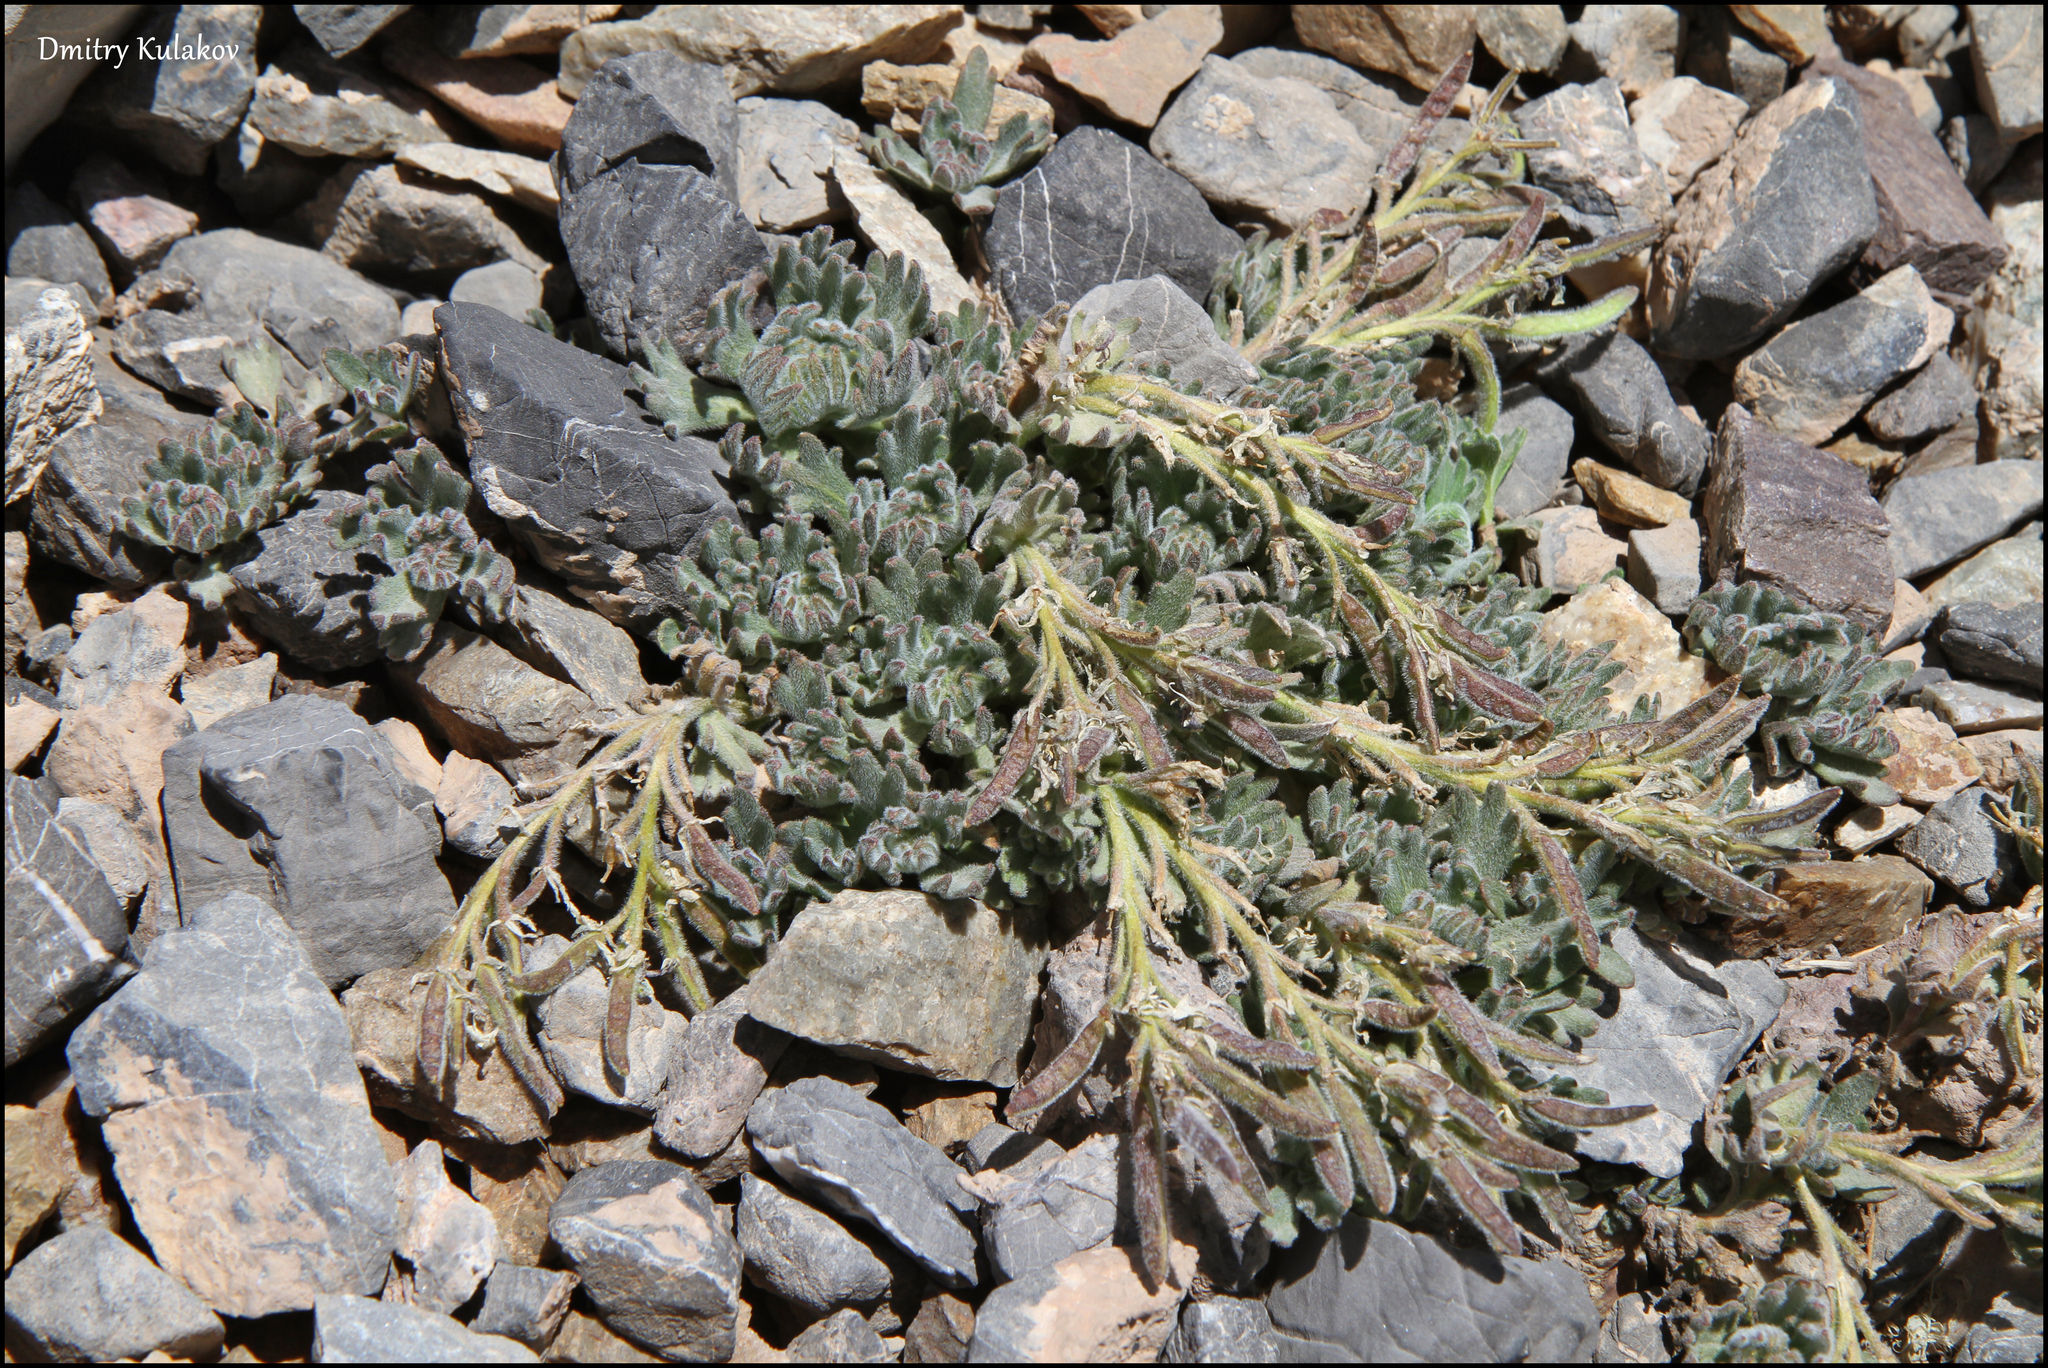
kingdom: Plantae
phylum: Tracheophyta
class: Magnoliopsida
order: Brassicales
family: Brassicaceae
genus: Solms-laubachia
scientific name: Solms-laubachia flabellata
